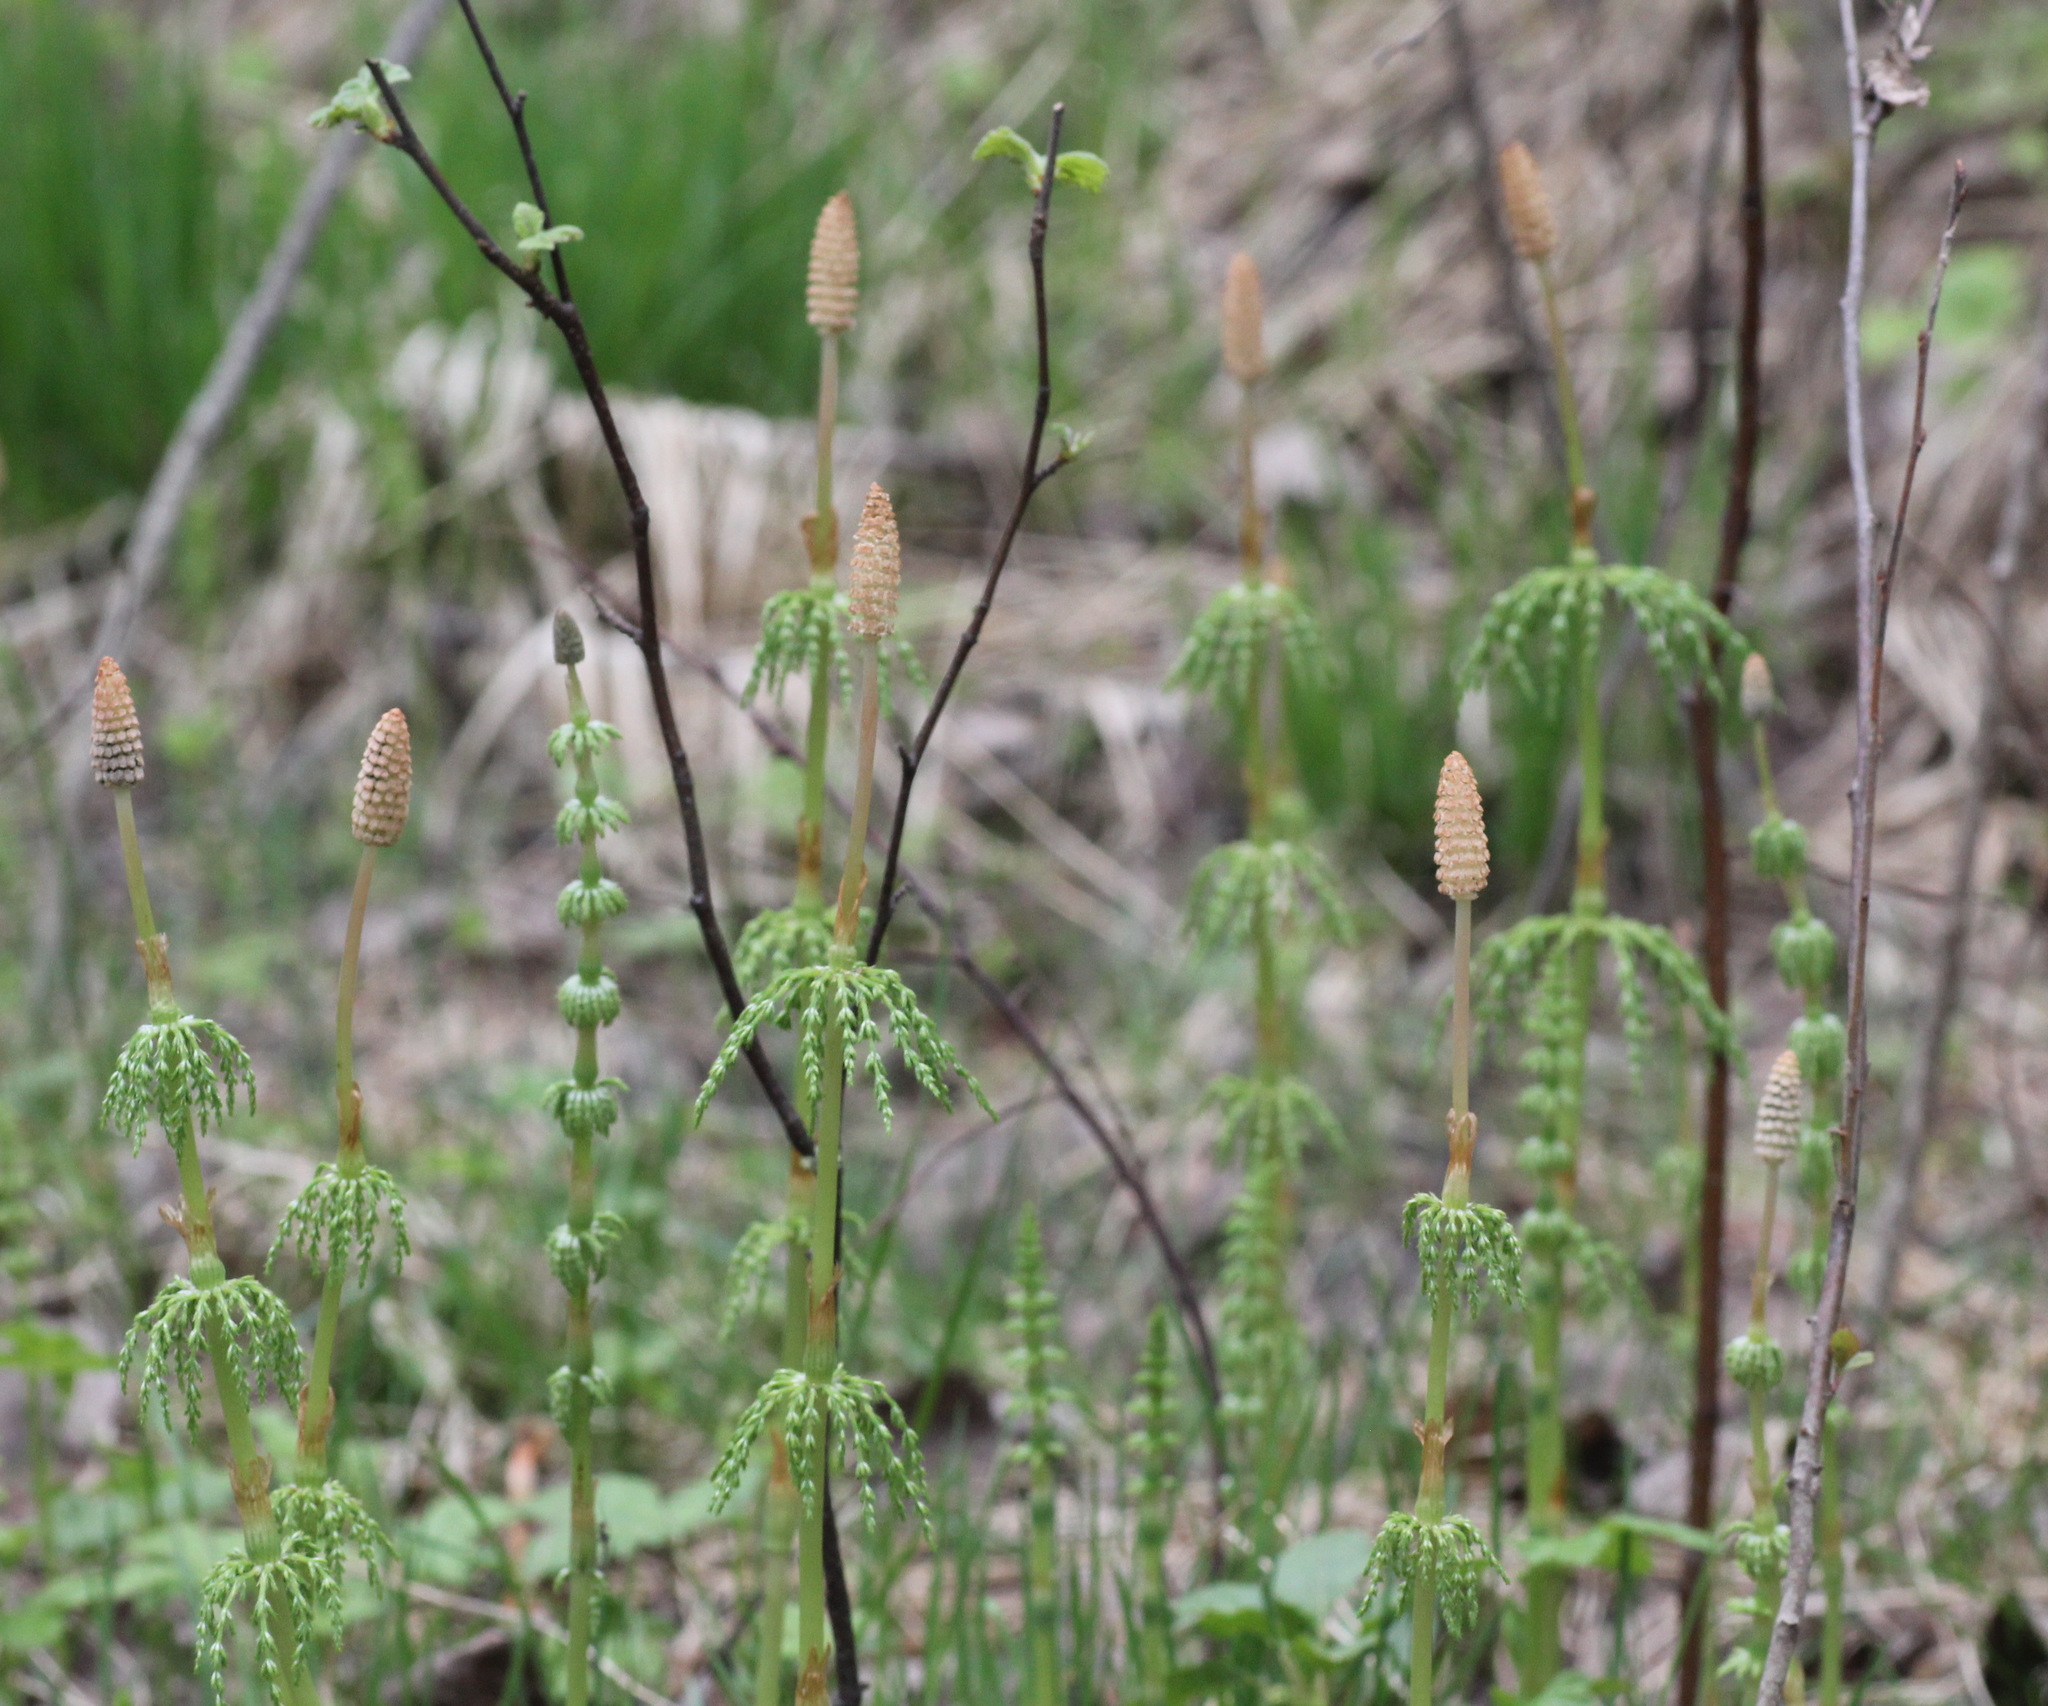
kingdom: Plantae
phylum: Tracheophyta
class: Polypodiopsida
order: Equisetales
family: Equisetaceae
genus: Equisetum
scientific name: Equisetum sylvaticum
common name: Wood horsetail
